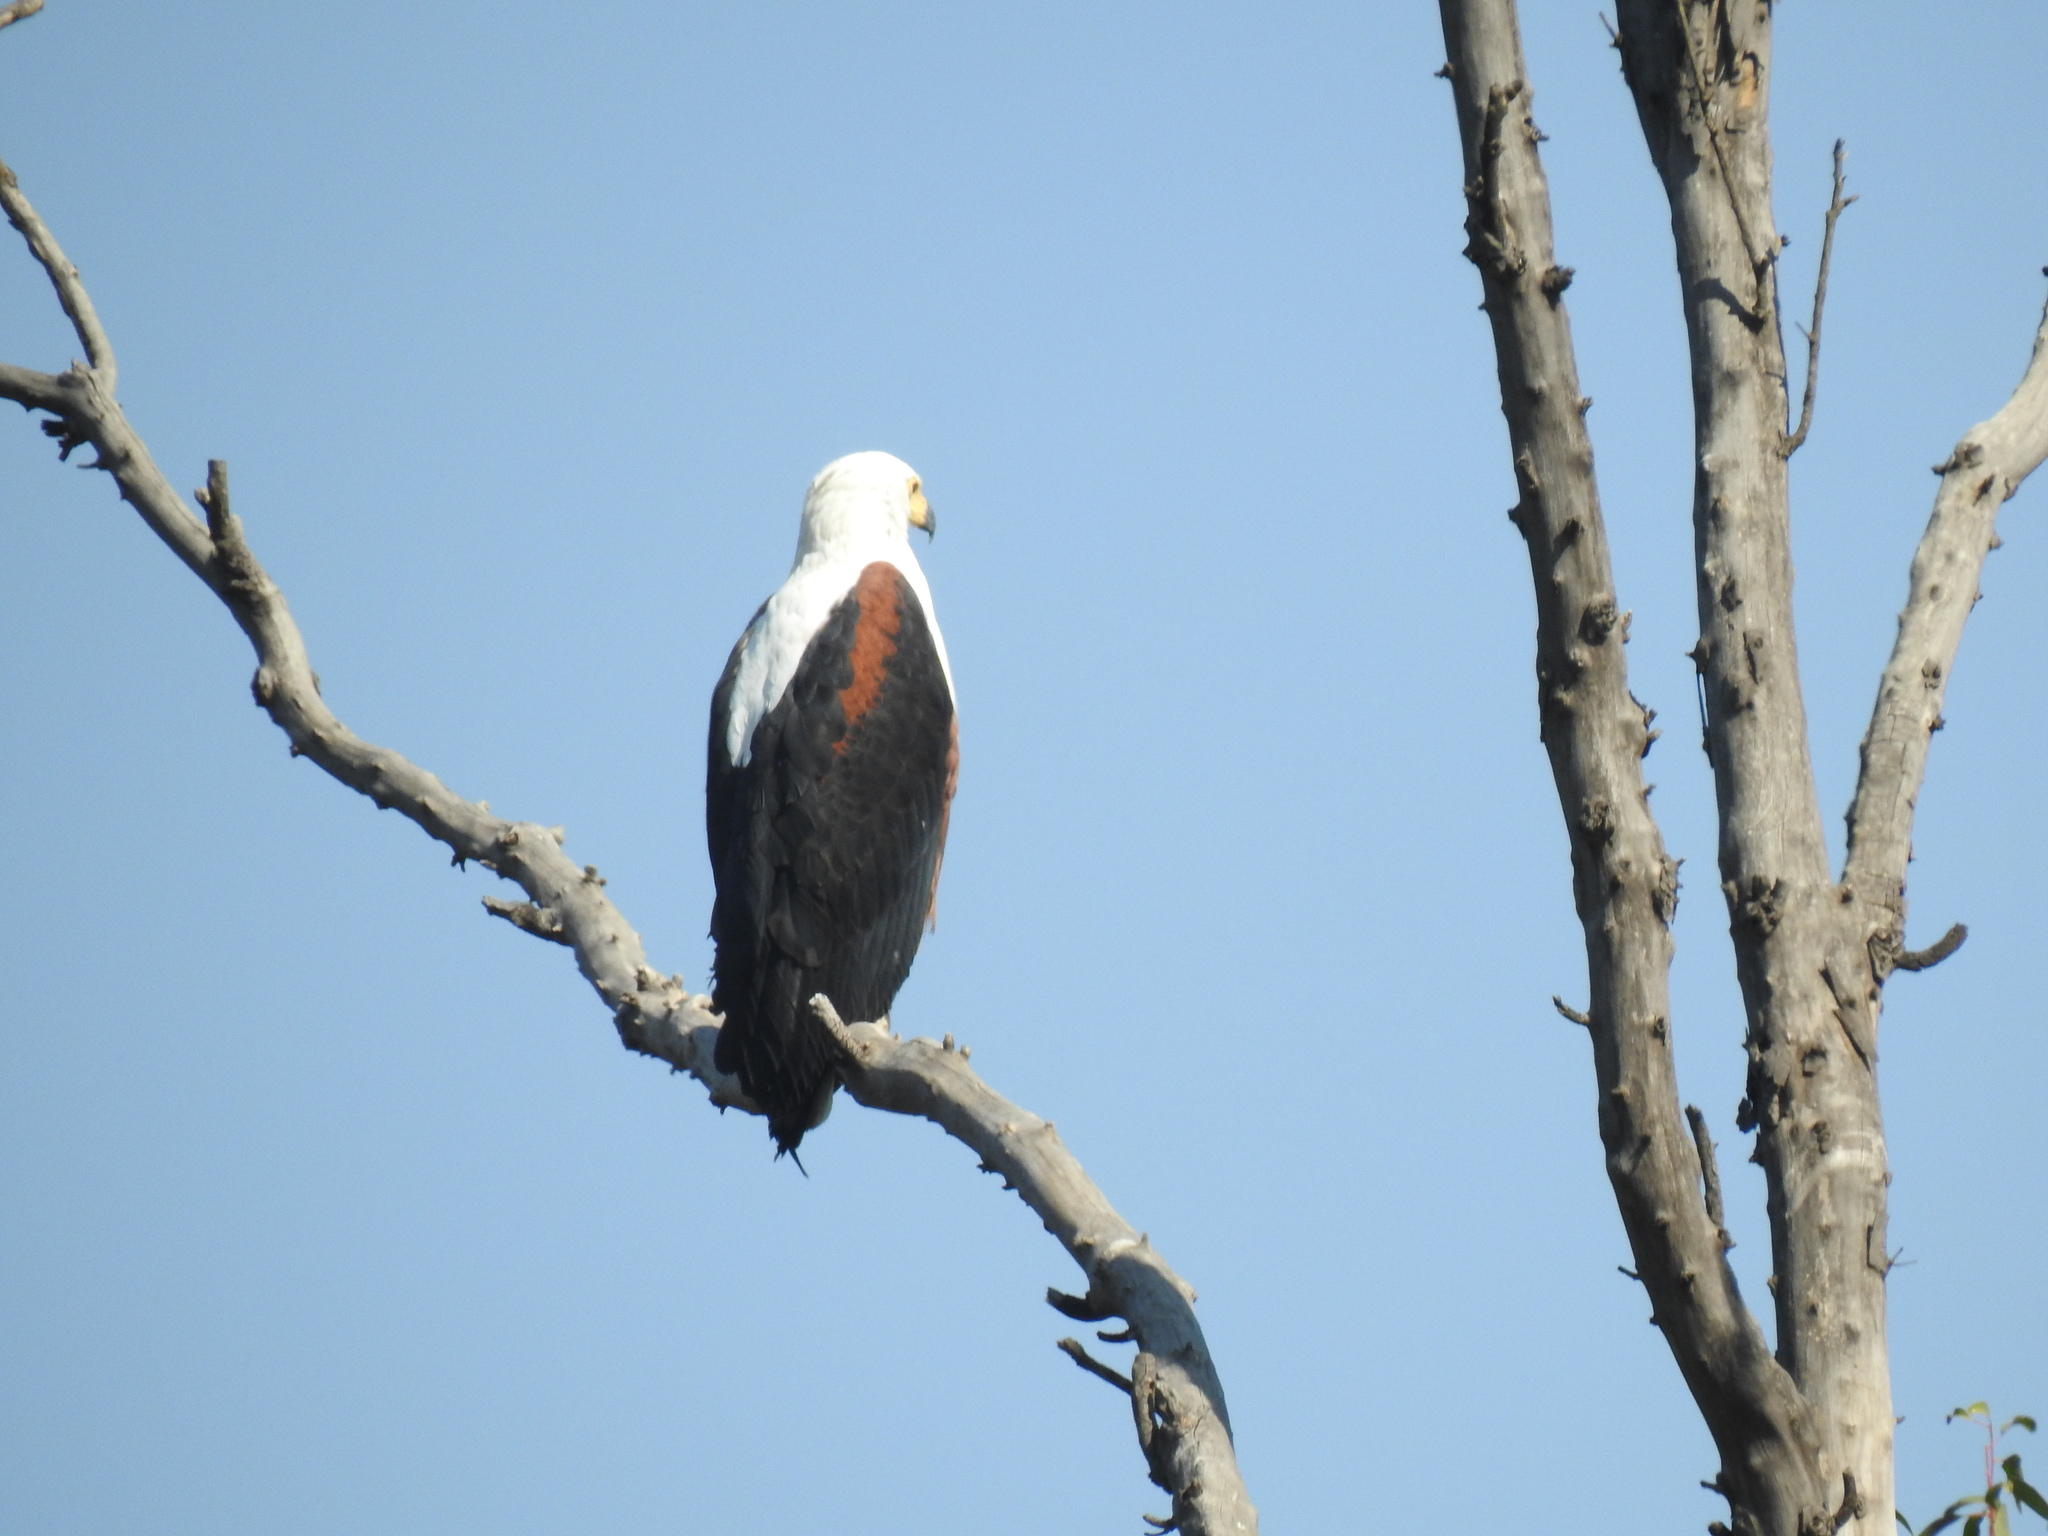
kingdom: Animalia
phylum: Chordata
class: Aves
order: Accipitriformes
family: Accipitridae
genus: Haliaeetus
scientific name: Haliaeetus vocifer
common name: African fish eagle
